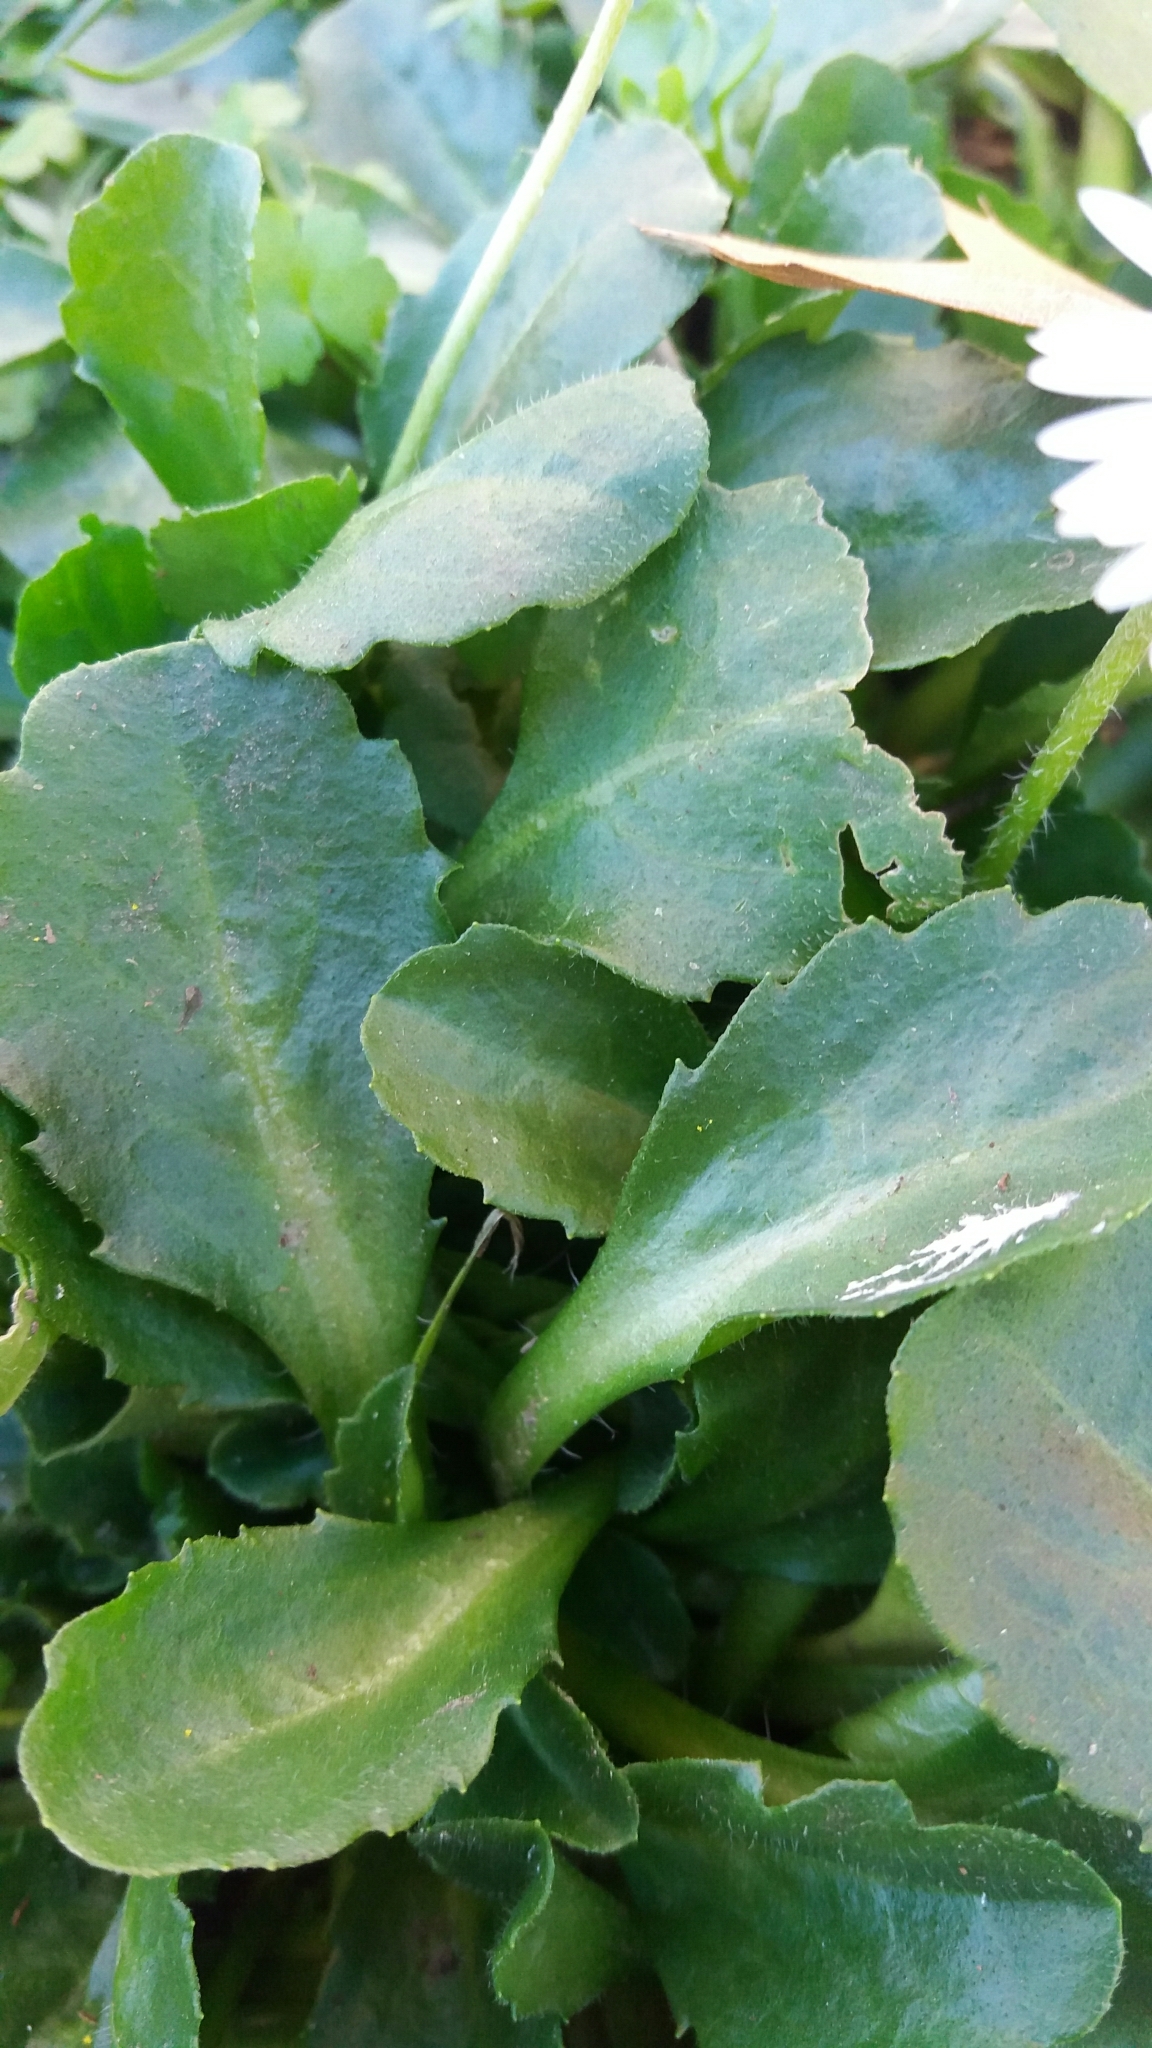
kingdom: Plantae
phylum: Tracheophyta
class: Magnoliopsida
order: Asterales
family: Asteraceae
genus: Bellis
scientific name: Bellis perennis
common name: Lawndaisy
